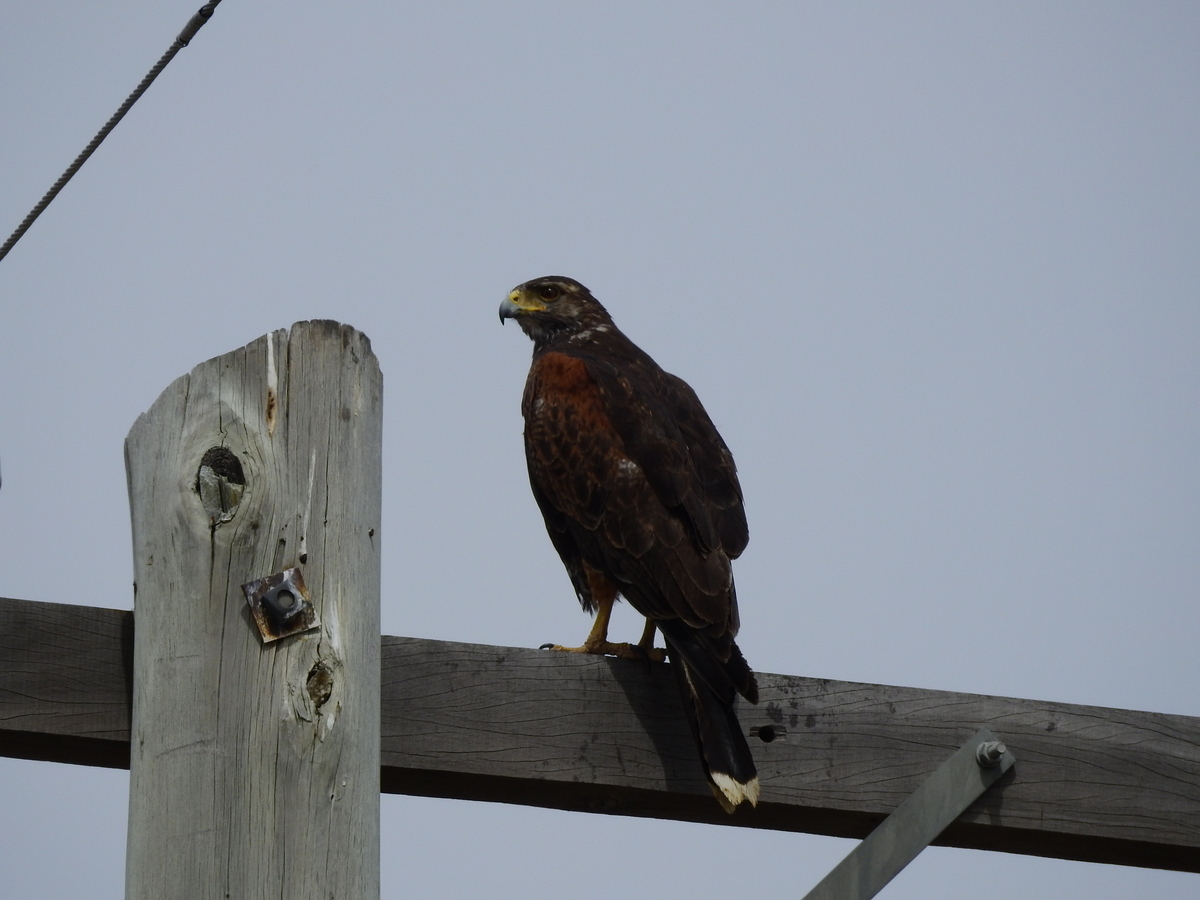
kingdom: Animalia
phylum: Chordata
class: Aves
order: Accipitriformes
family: Accipitridae
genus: Parabuteo
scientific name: Parabuteo unicinctus
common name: Harris's hawk
